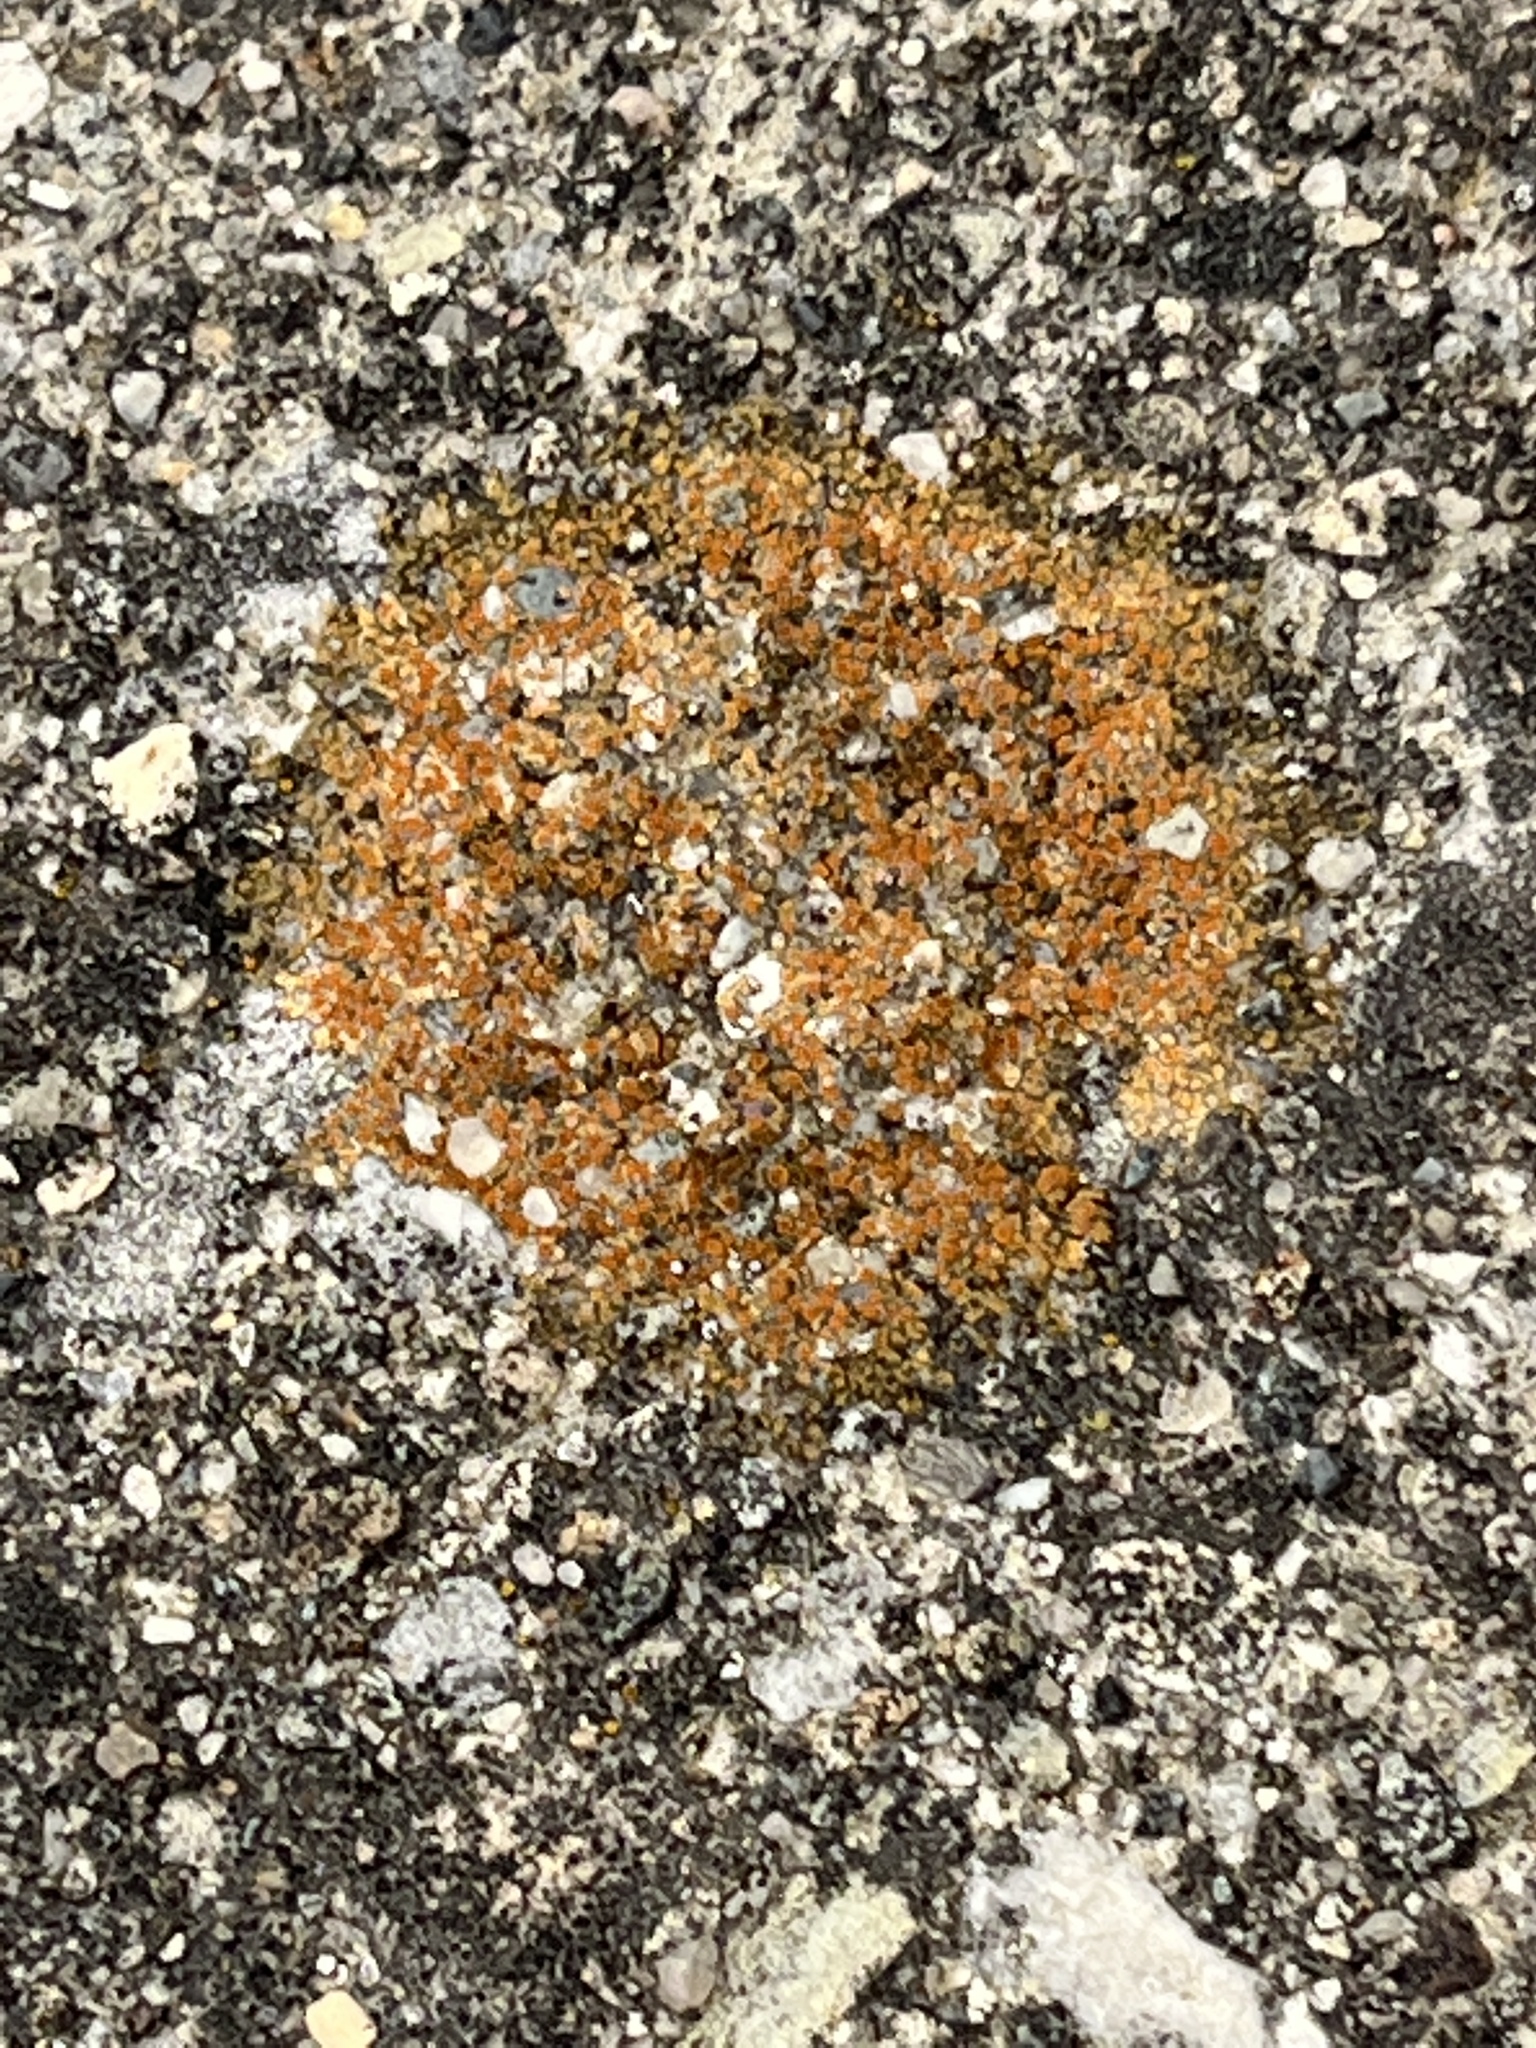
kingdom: Fungi
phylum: Ascomycota
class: Lecanoromycetes
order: Teloschistales
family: Teloschistaceae
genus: Xanthocarpia
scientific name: Xanthocarpia feracissima
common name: Sidewalk firedot
